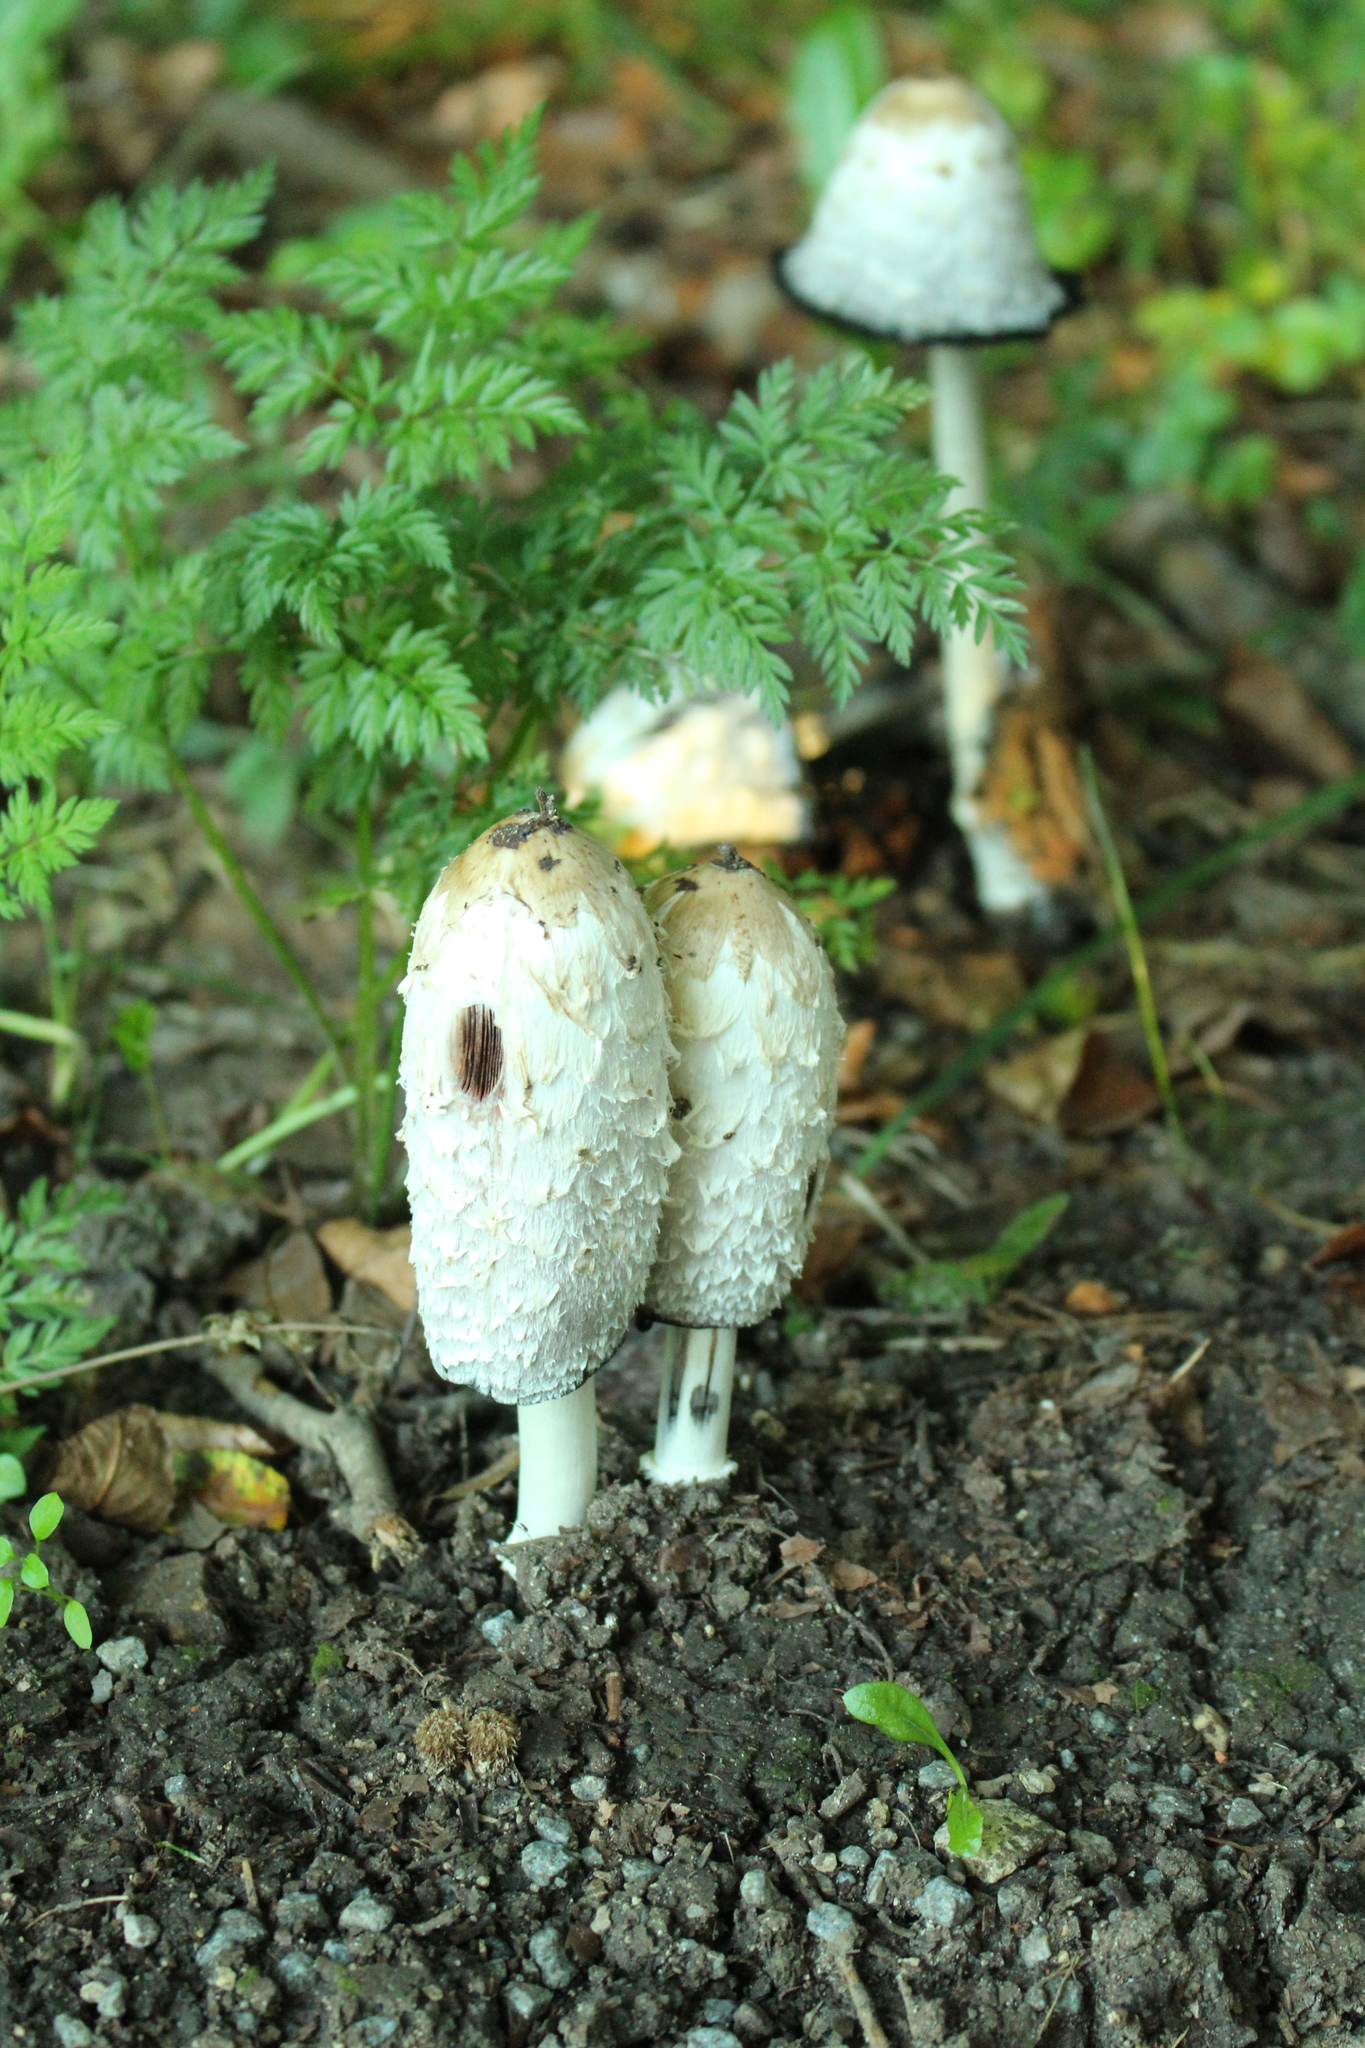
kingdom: Fungi
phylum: Basidiomycota
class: Agaricomycetes
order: Agaricales
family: Agaricaceae
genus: Coprinus
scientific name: Coprinus comatus
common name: Lawyer's wig
